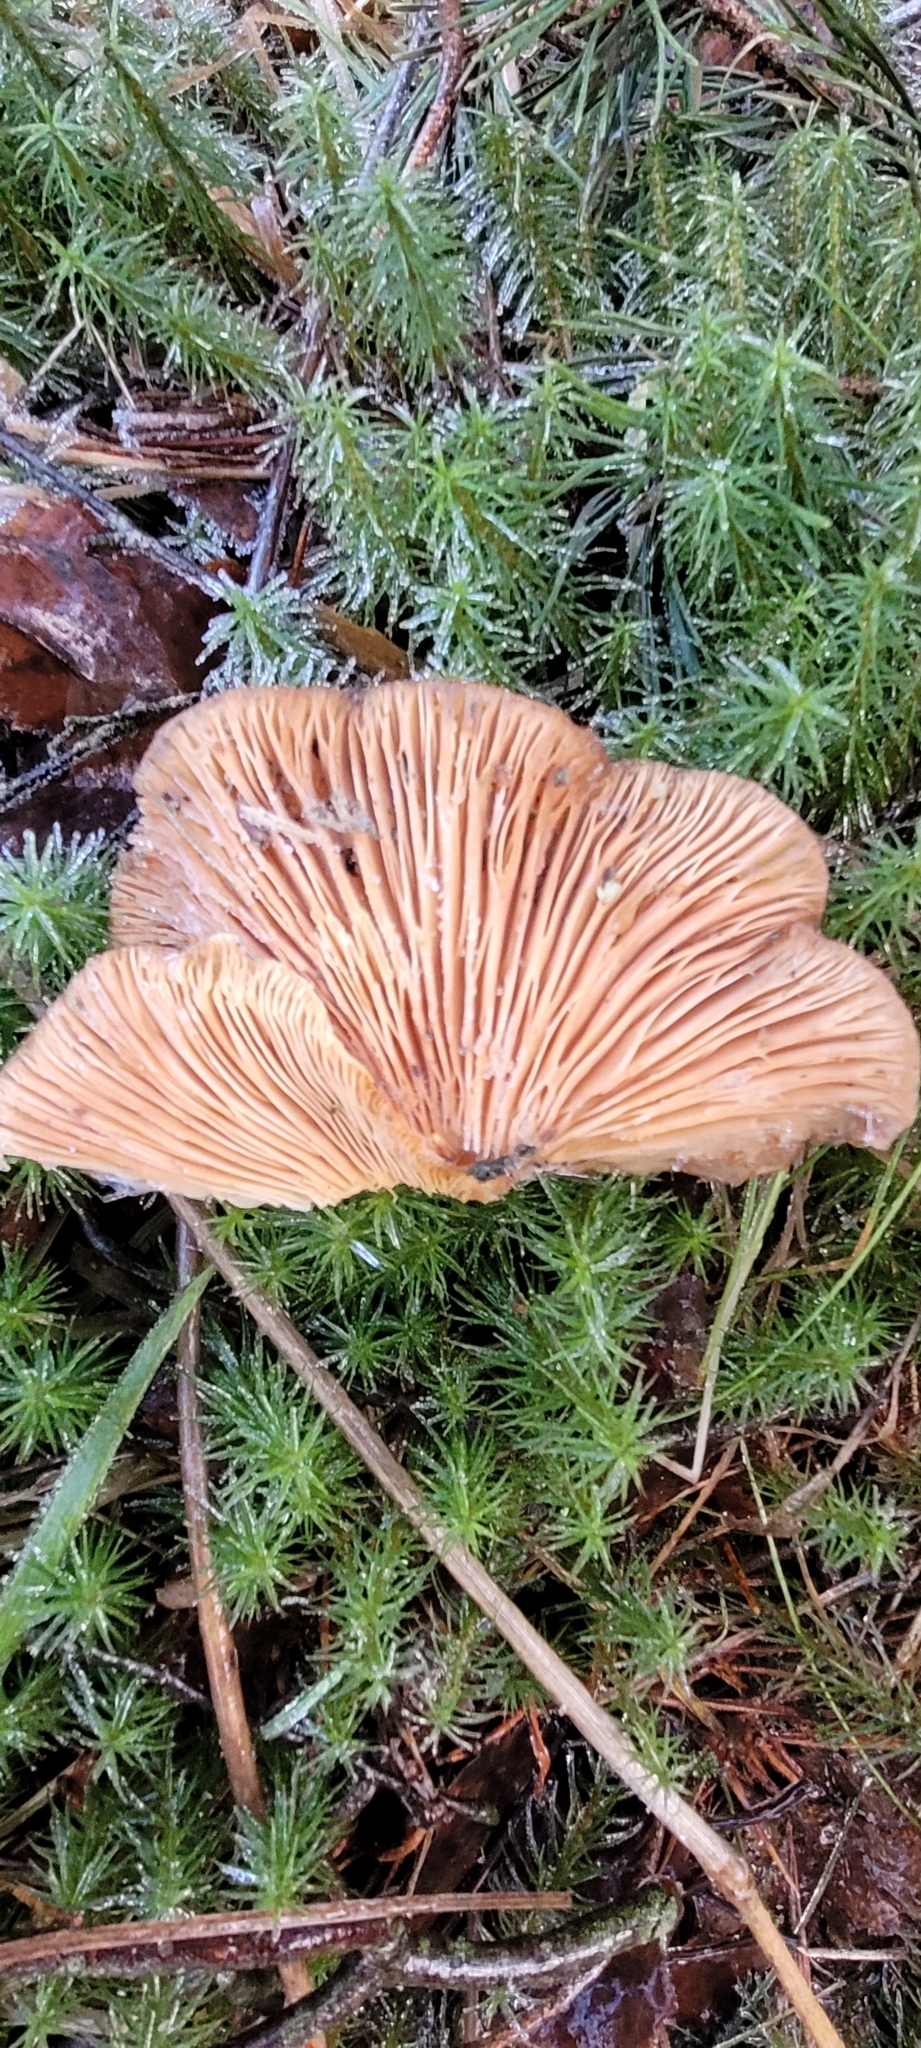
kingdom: Fungi
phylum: Basidiomycota
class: Agaricomycetes
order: Agaricales
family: Sarcomyxaceae
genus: Sarcomyxa
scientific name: Sarcomyxa serotina
